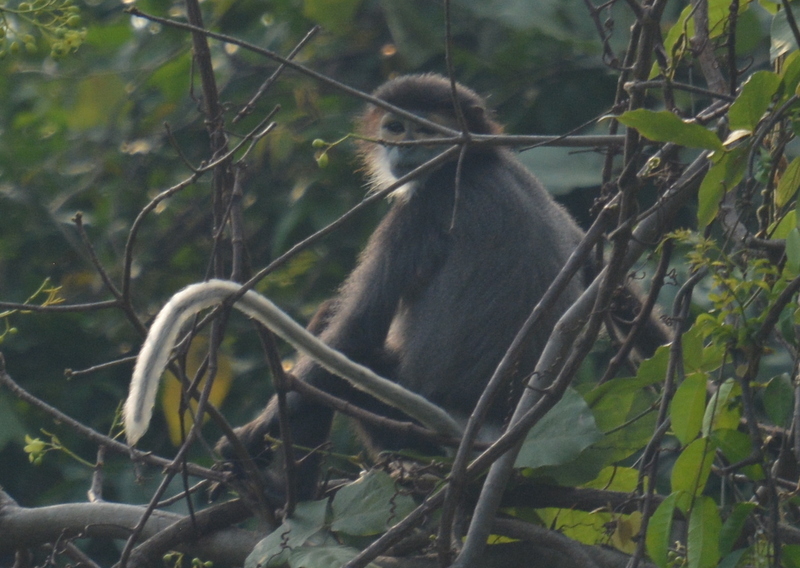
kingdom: Animalia
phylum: Chordata
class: Mammalia
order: Primates
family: Cercopithecidae
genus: Pygathrix
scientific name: Pygathrix nigripes
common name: Black-shanked douc
